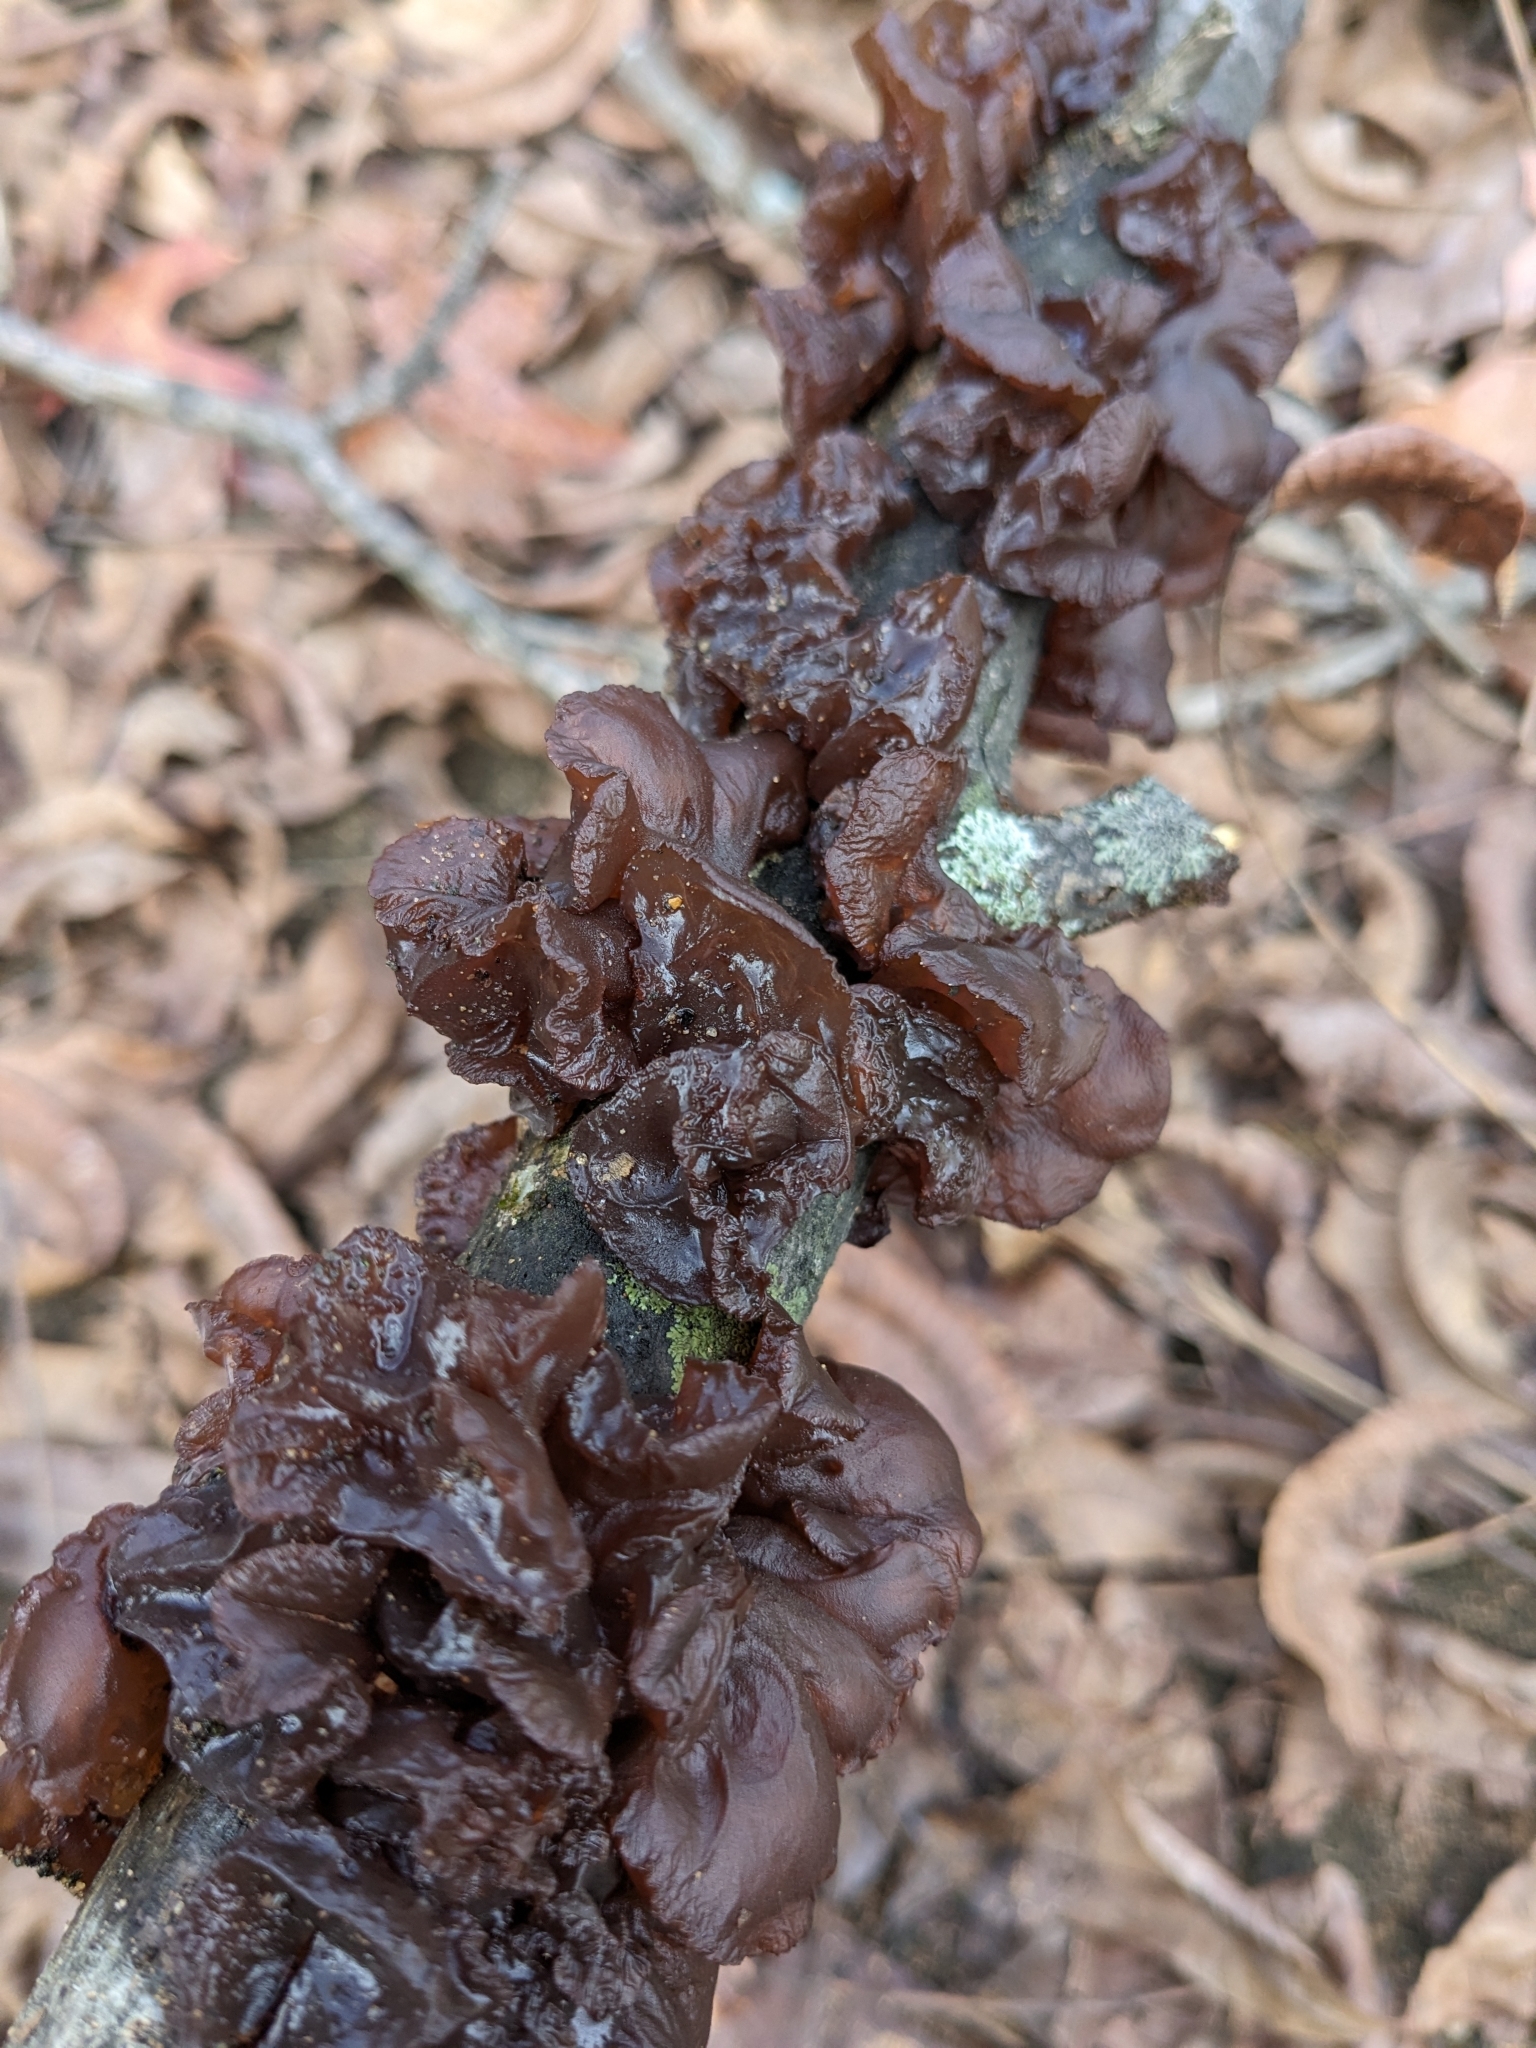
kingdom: Fungi
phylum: Basidiomycota
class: Agaricomycetes
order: Auriculariales
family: Auriculariaceae
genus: Exidia
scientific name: Exidia
